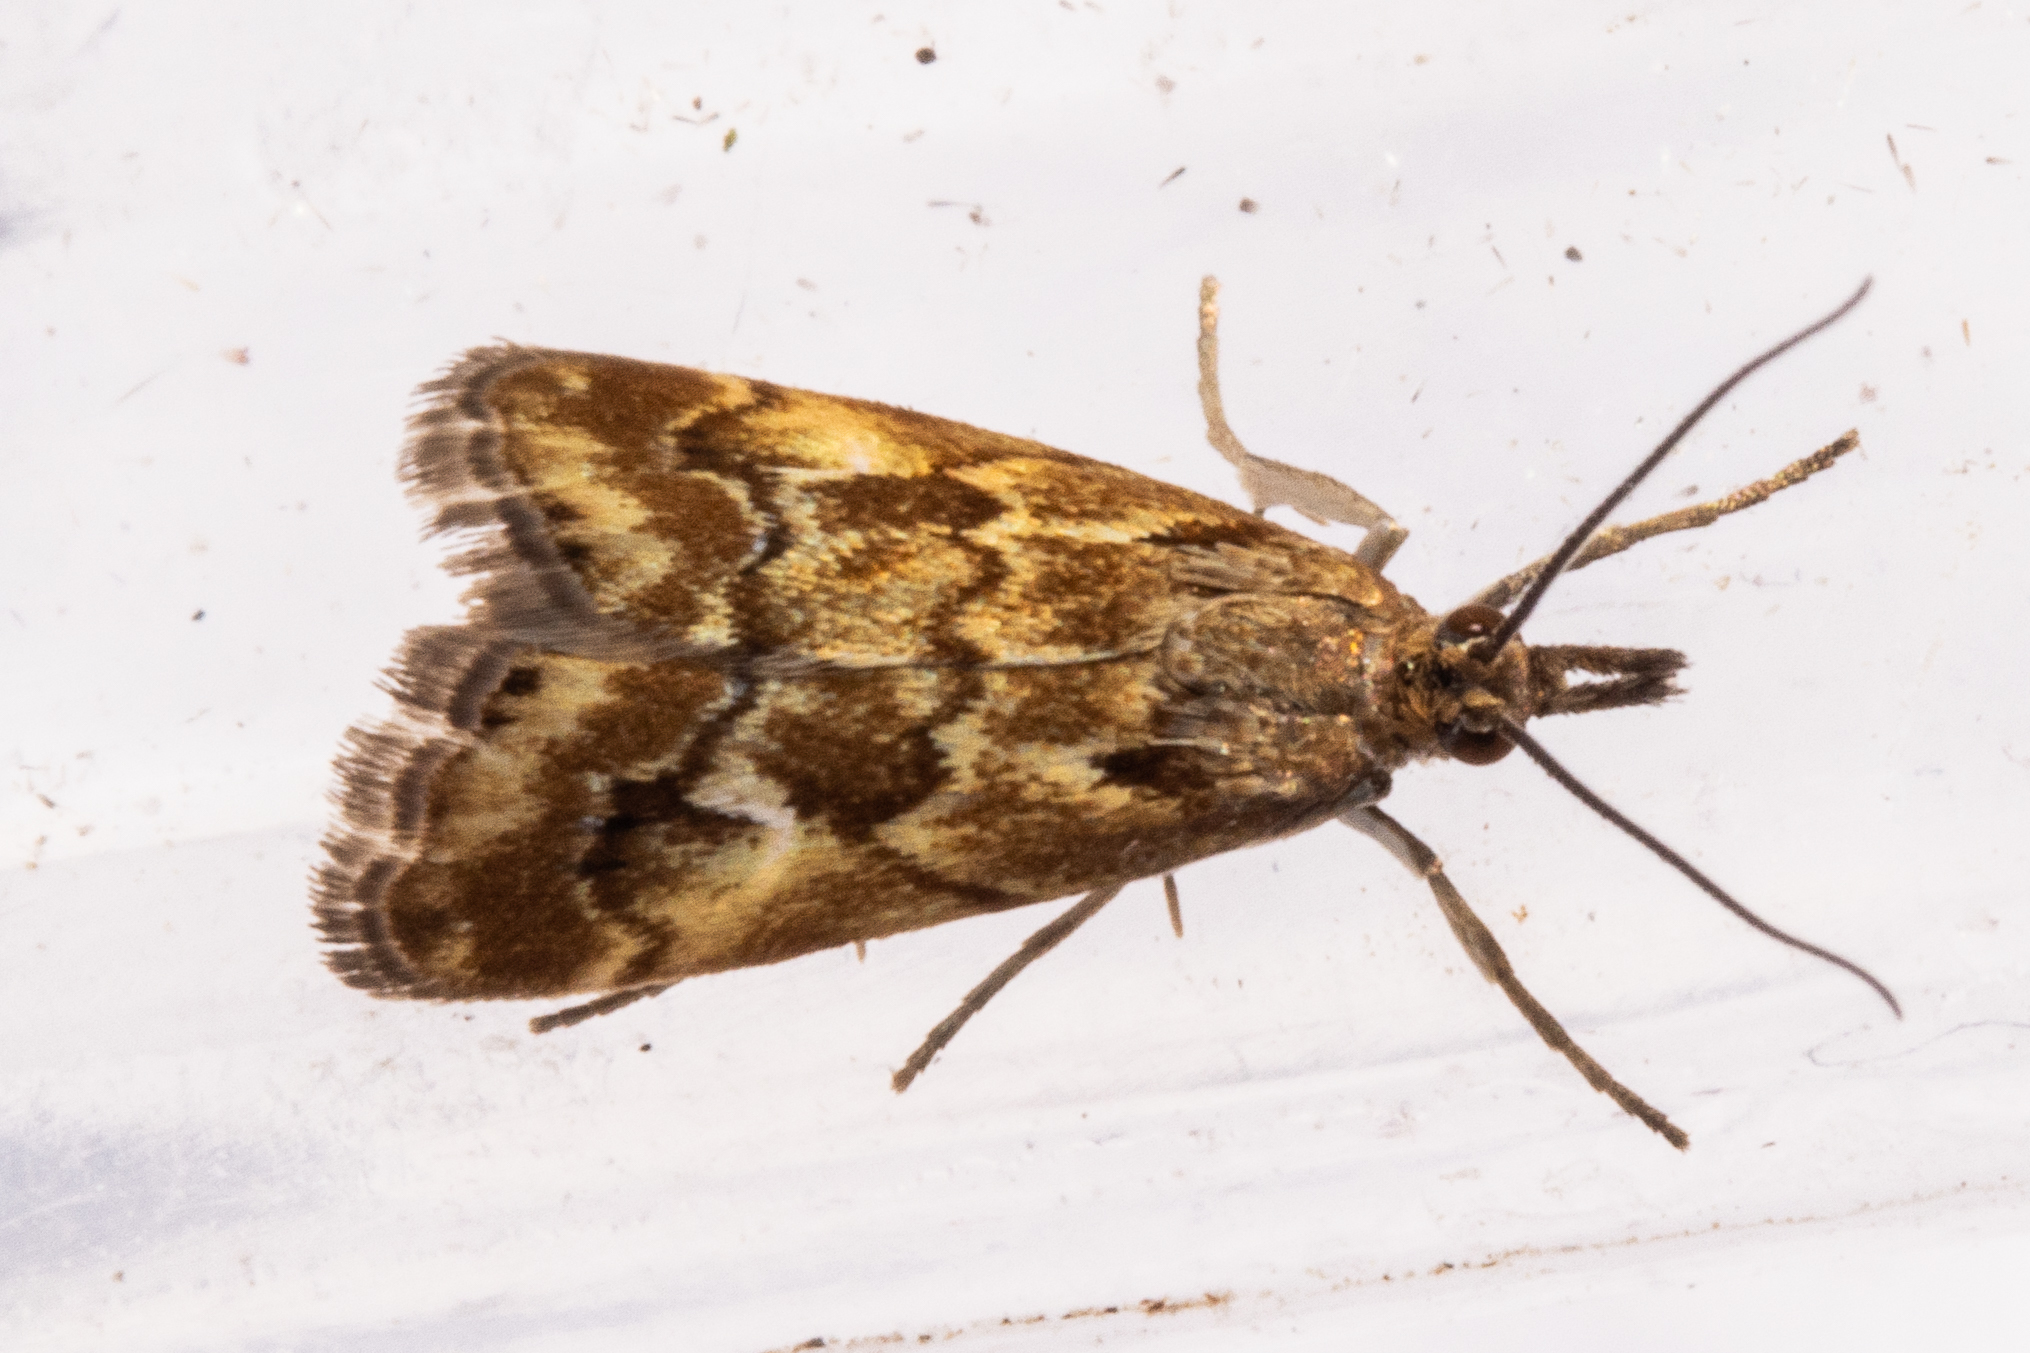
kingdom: Animalia
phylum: Arthropoda
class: Insecta
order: Lepidoptera
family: Crambidae
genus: Glaucocharis
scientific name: Glaucocharis helioctypa
